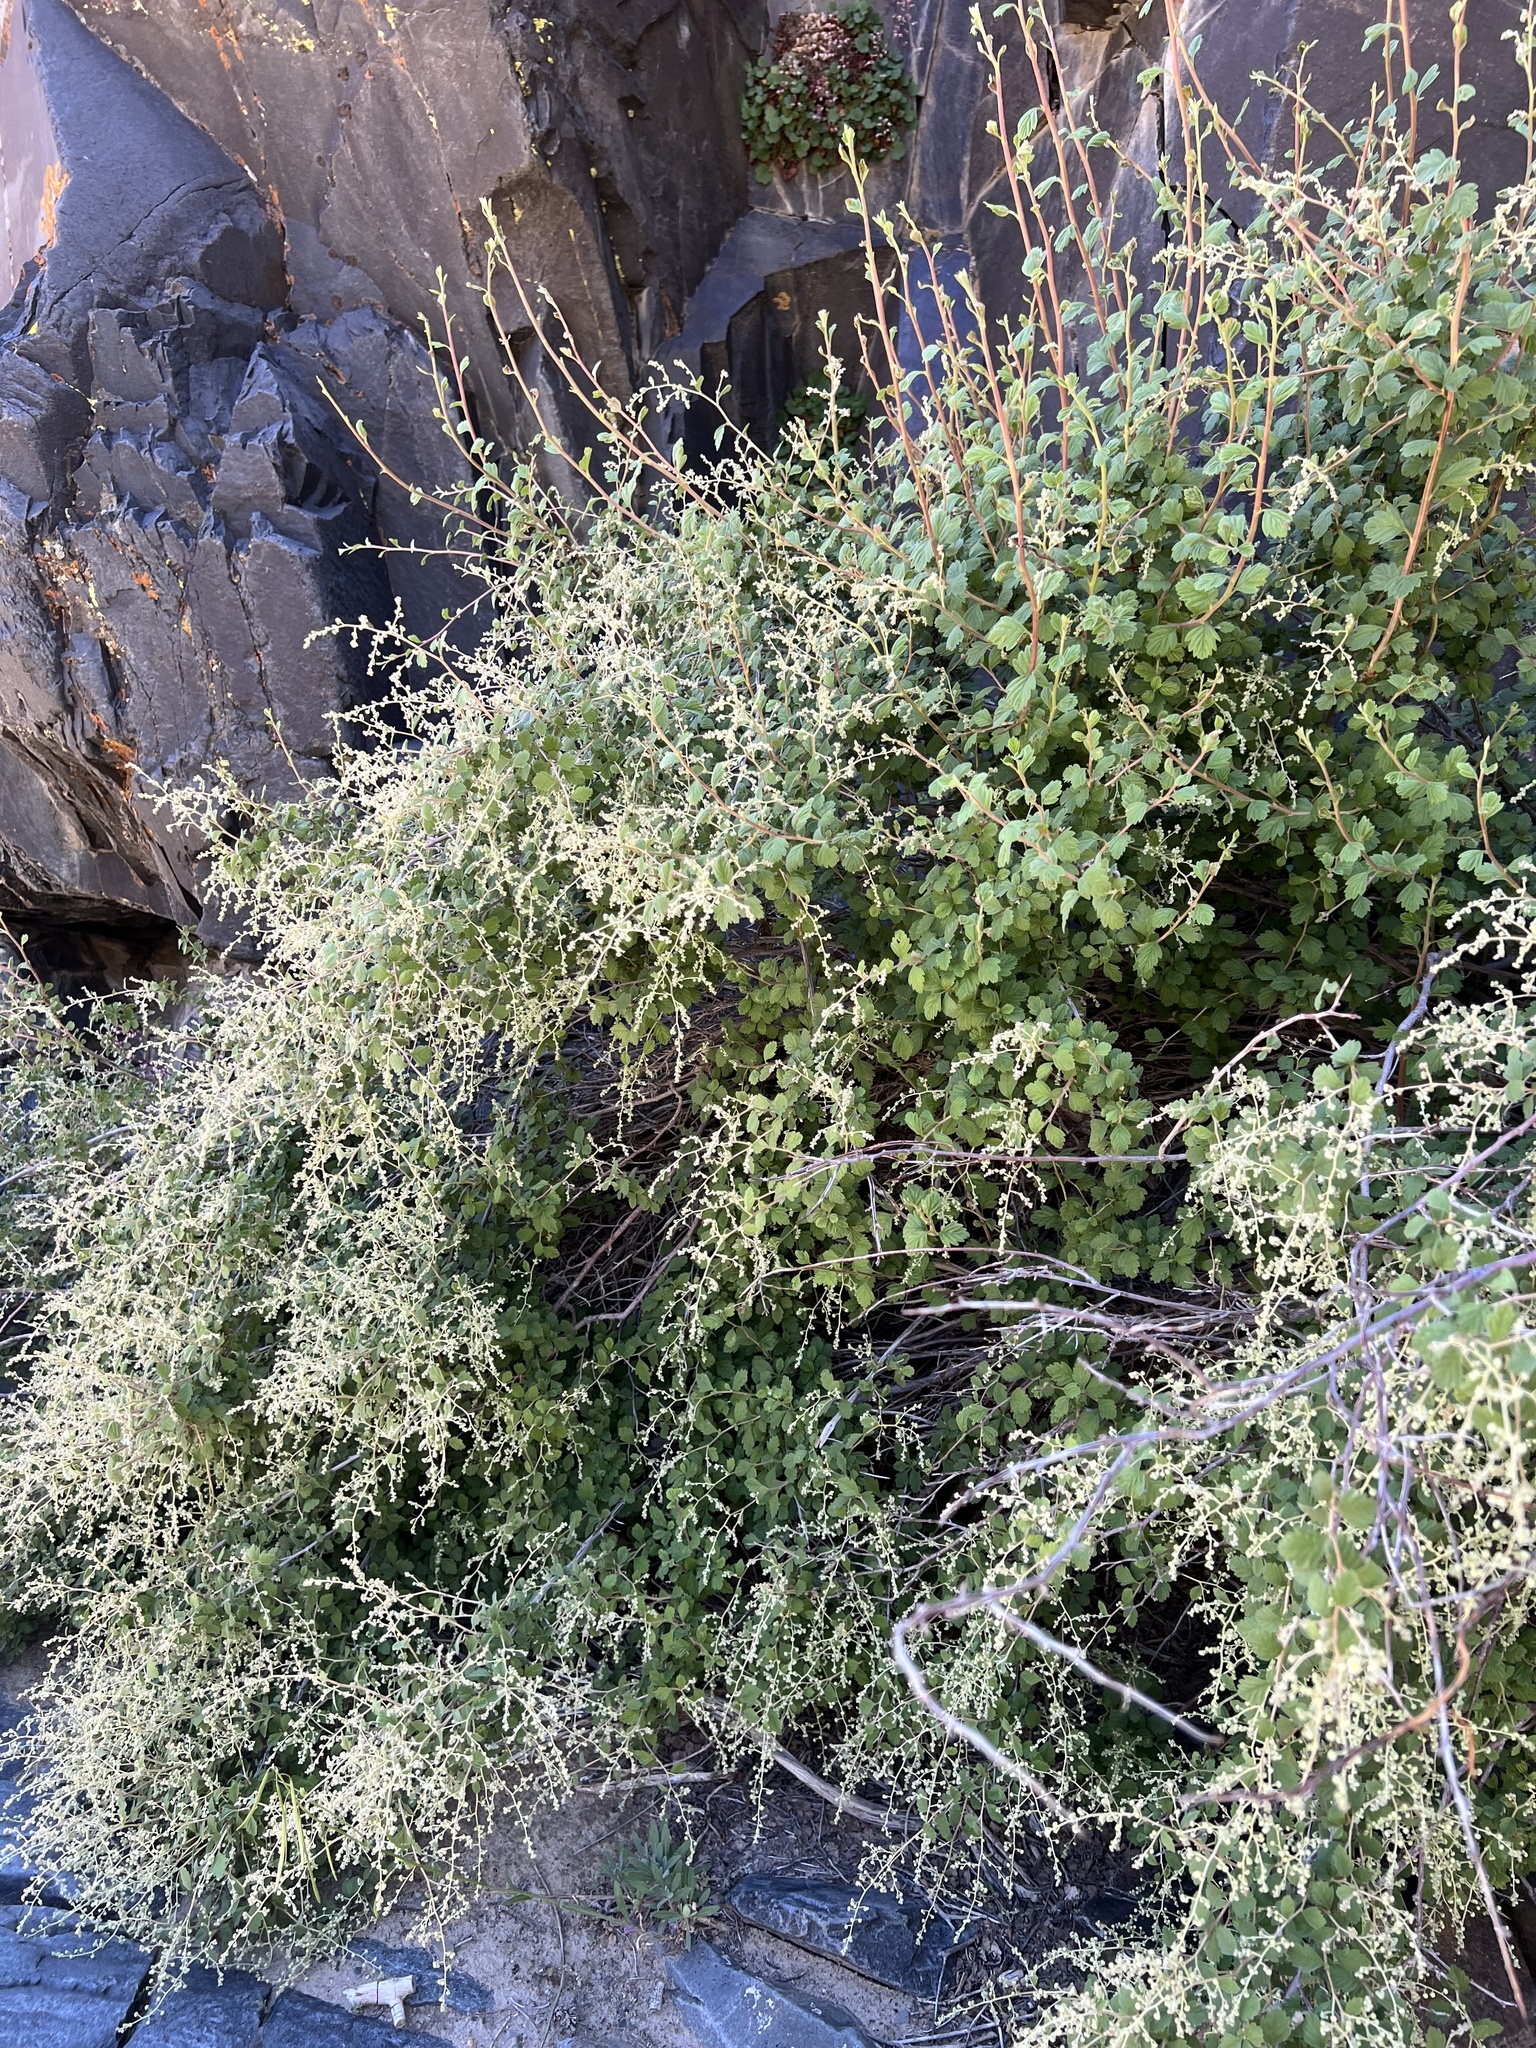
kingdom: Plantae
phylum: Tracheophyta
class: Magnoliopsida
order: Rosales
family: Rosaceae
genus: Holodiscus
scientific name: Holodiscus discolor
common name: Oceanspray
